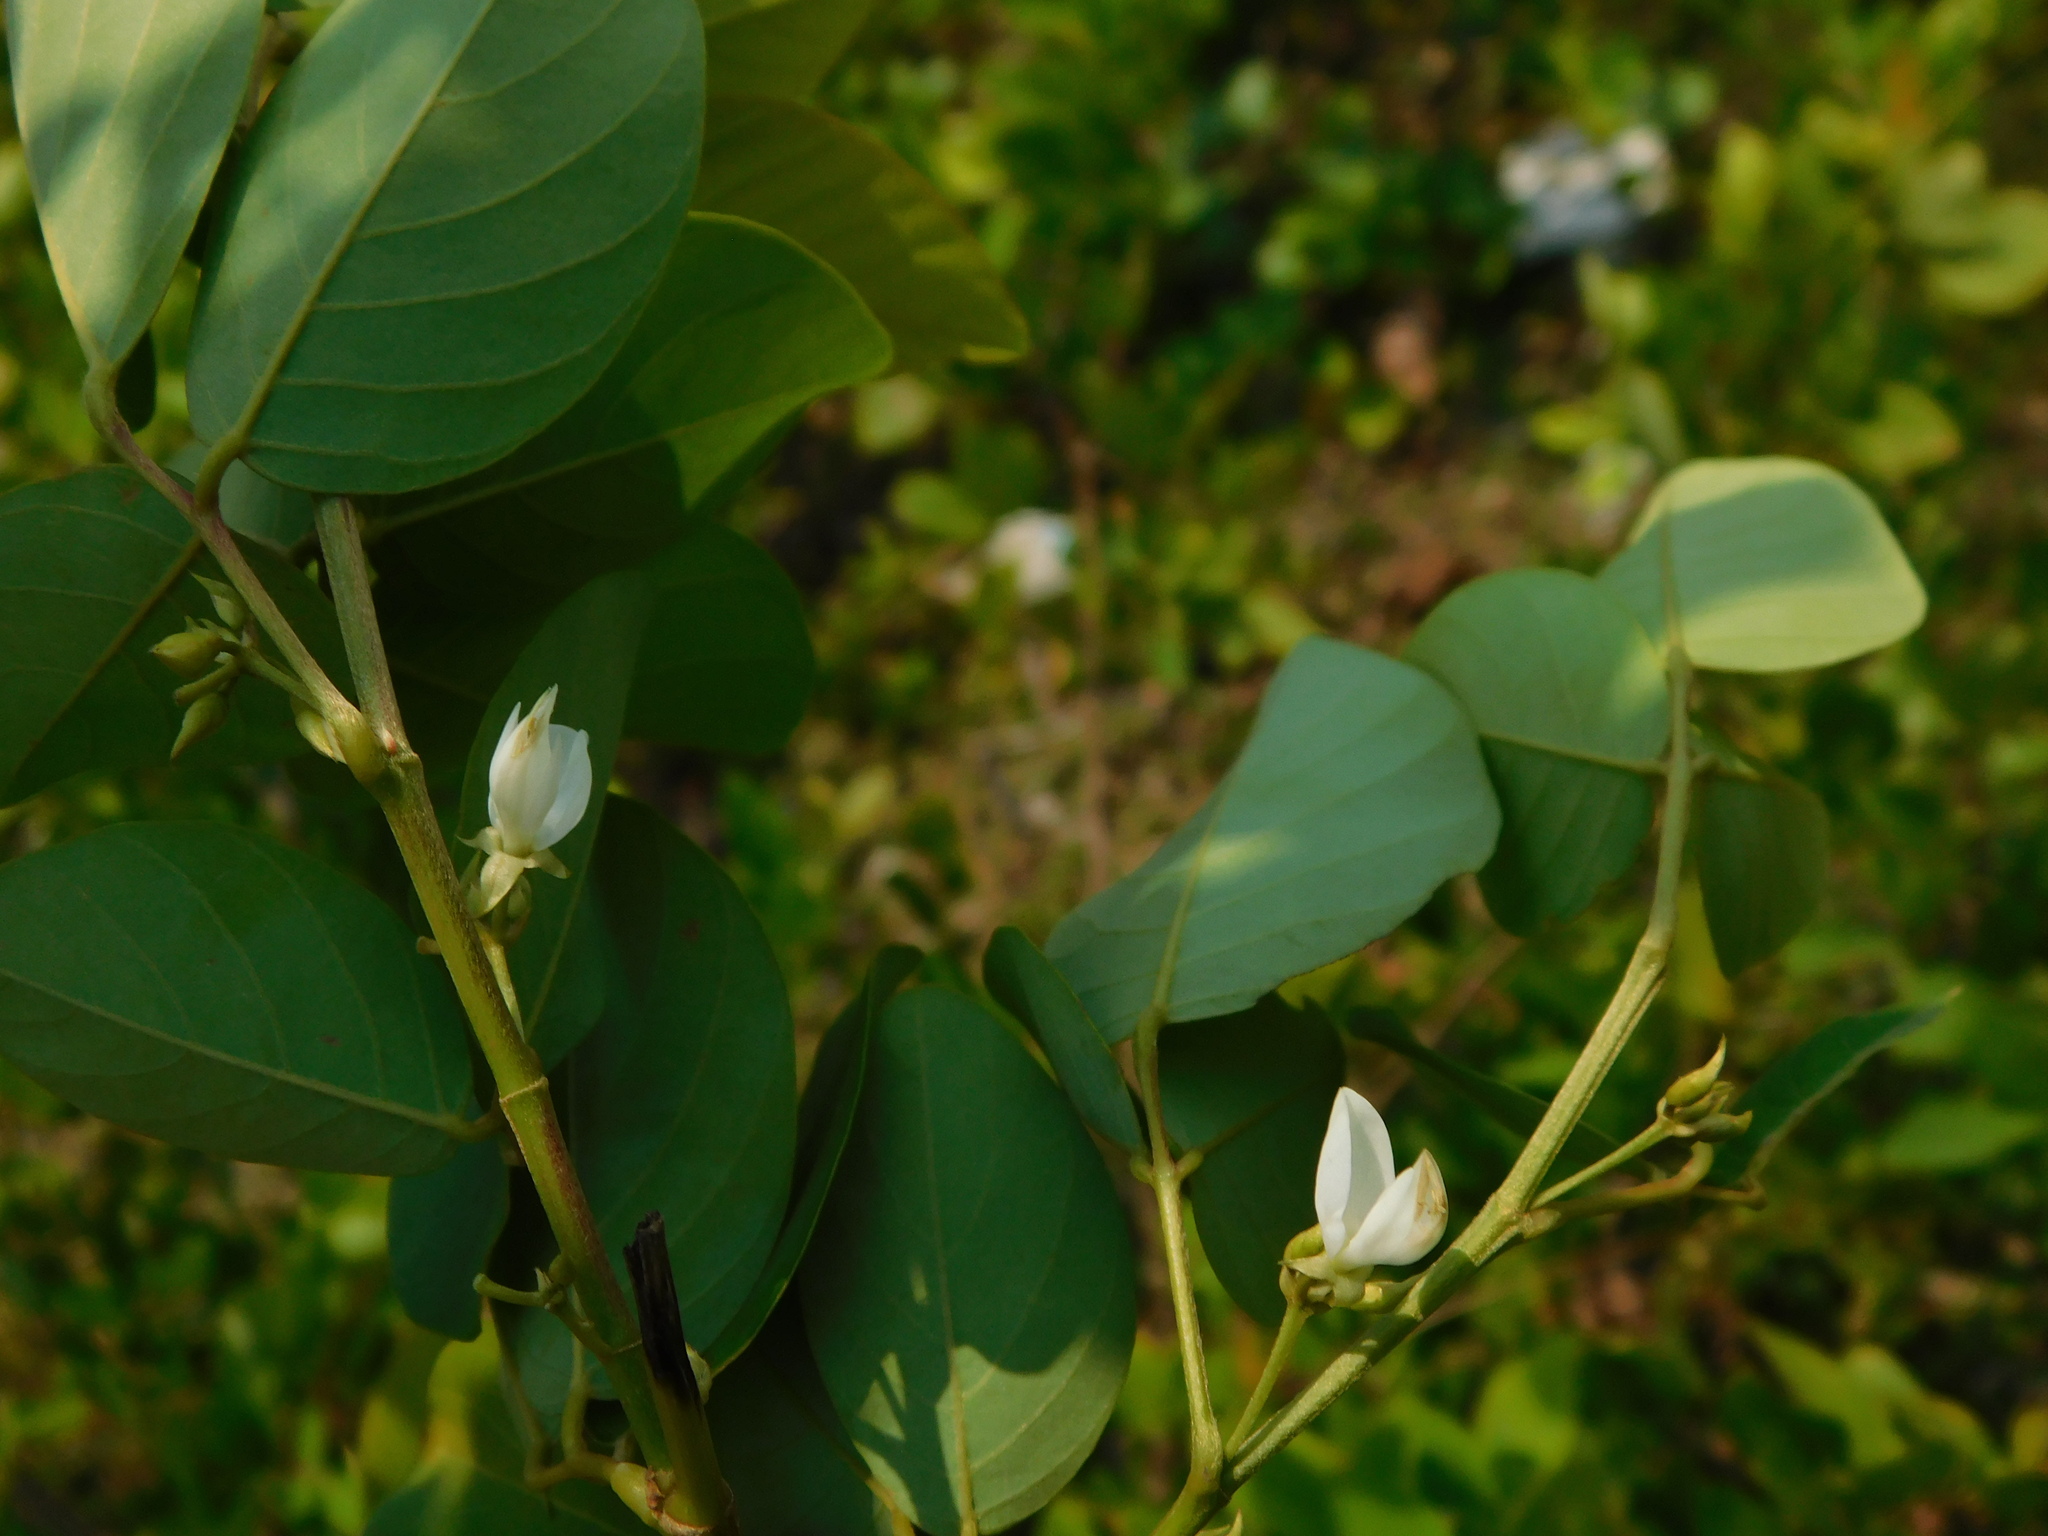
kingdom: Plantae
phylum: Tracheophyta
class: Magnoliopsida
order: Fabales
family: Fabaceae
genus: Dendrolobium
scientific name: Dendrolobium umbellatum
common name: Horsebush
